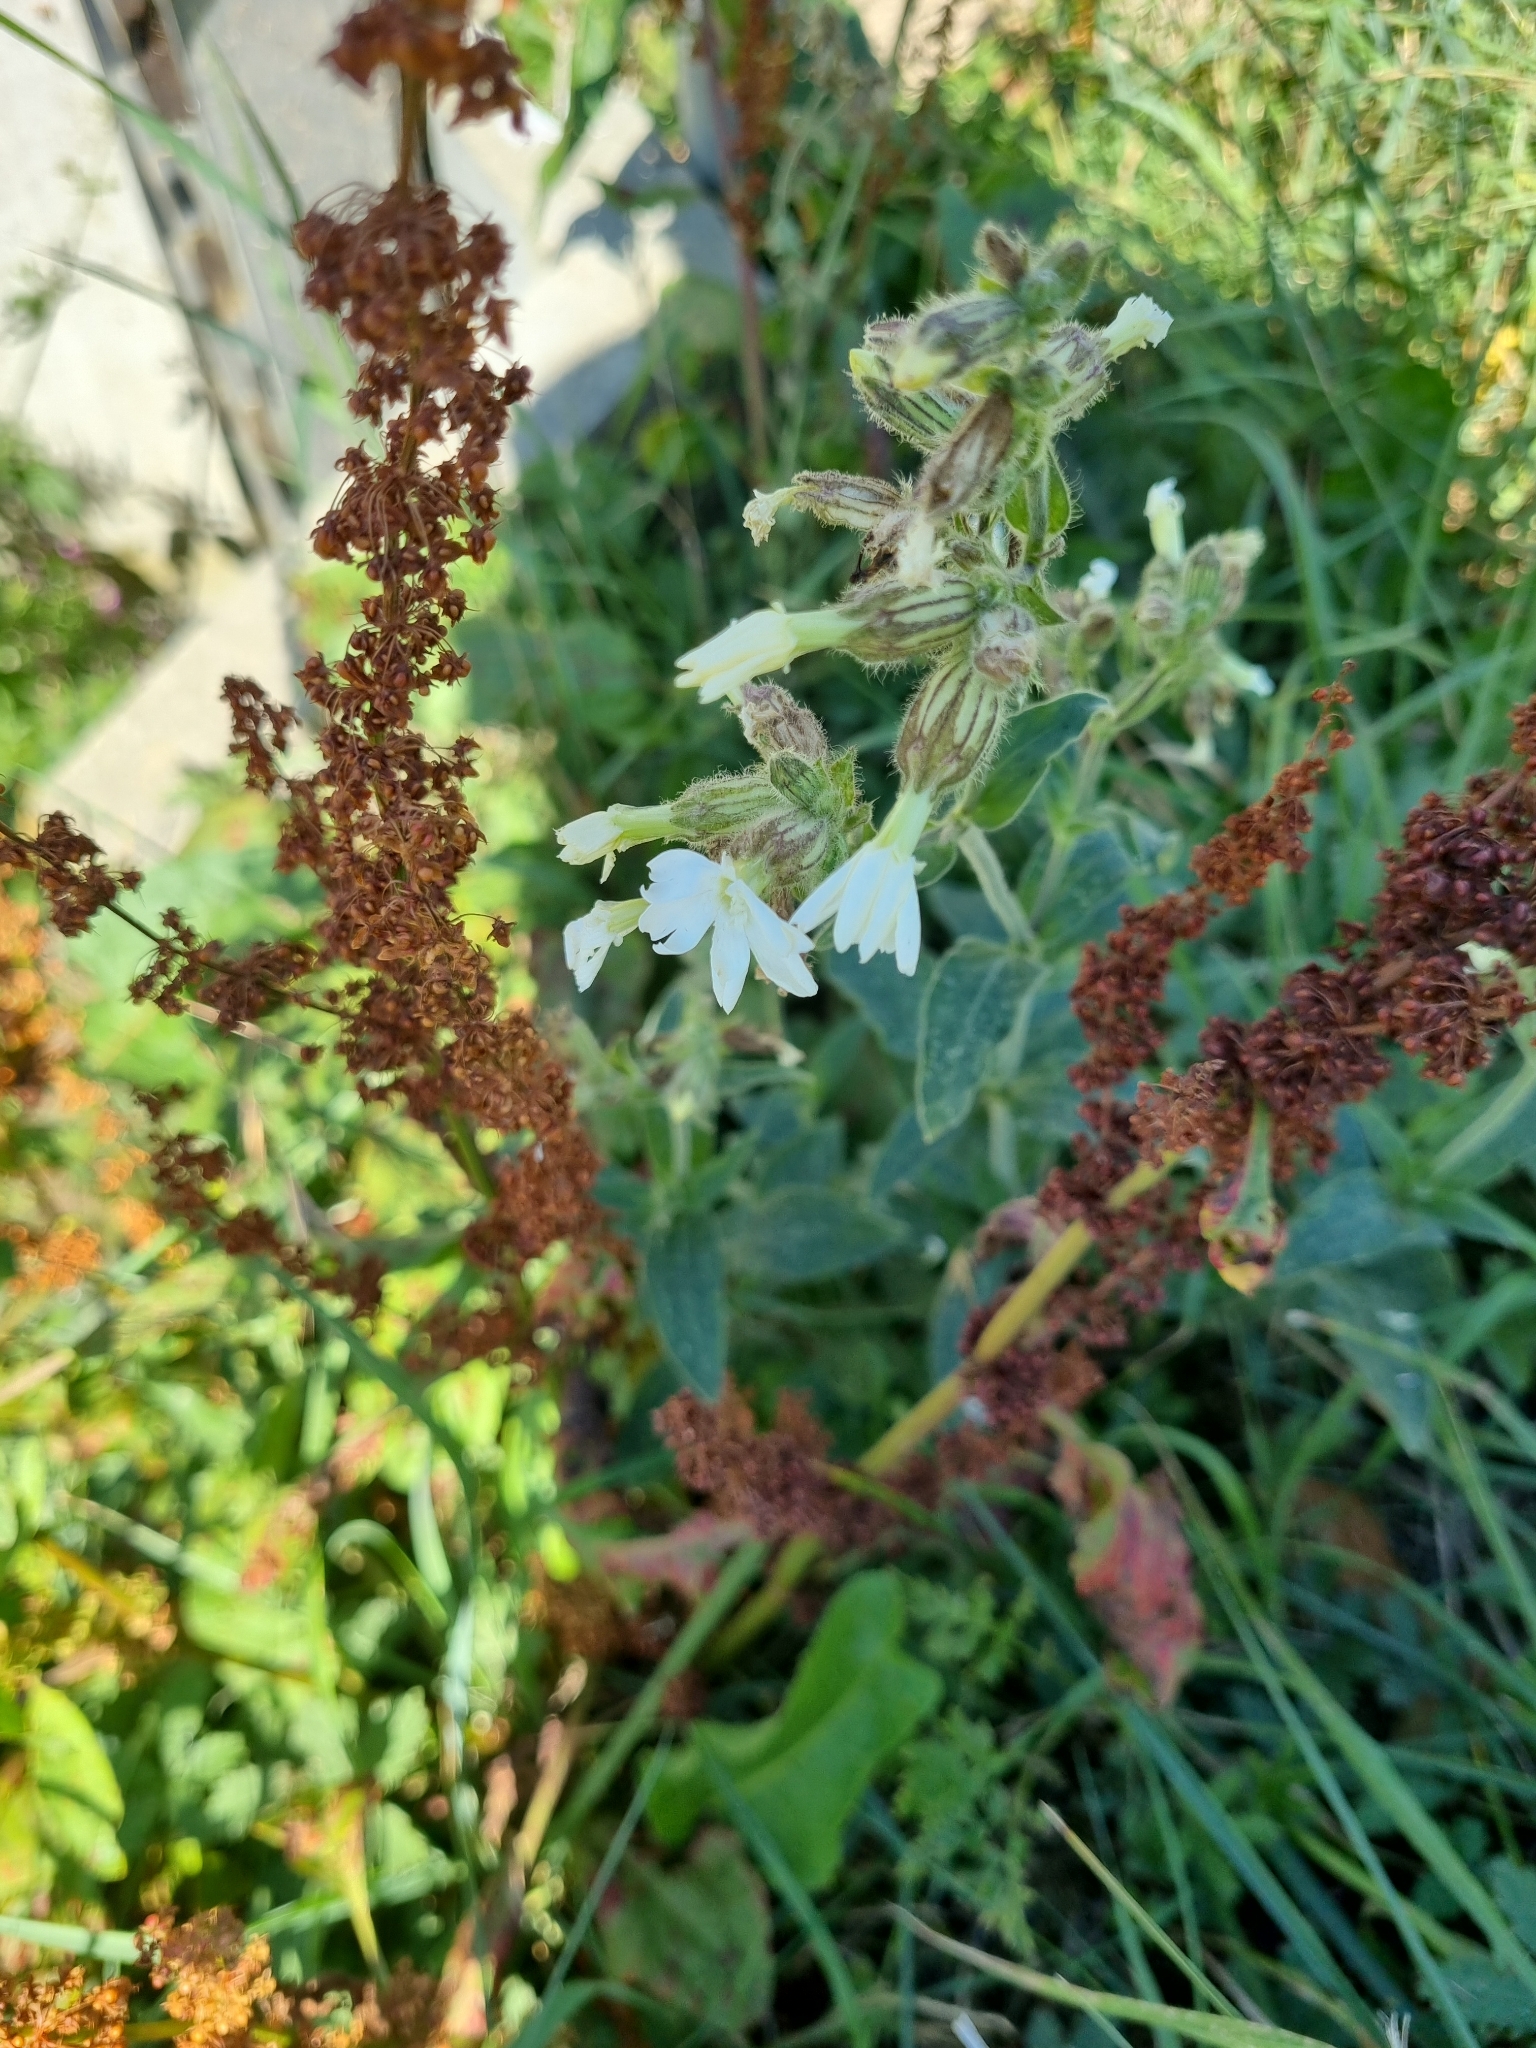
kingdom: Plantae
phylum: Tracheophyta
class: Magnoliopsida
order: Caryophyllales
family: Caryophyllaceae
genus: Silene
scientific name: Silene latifolia
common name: White campion
